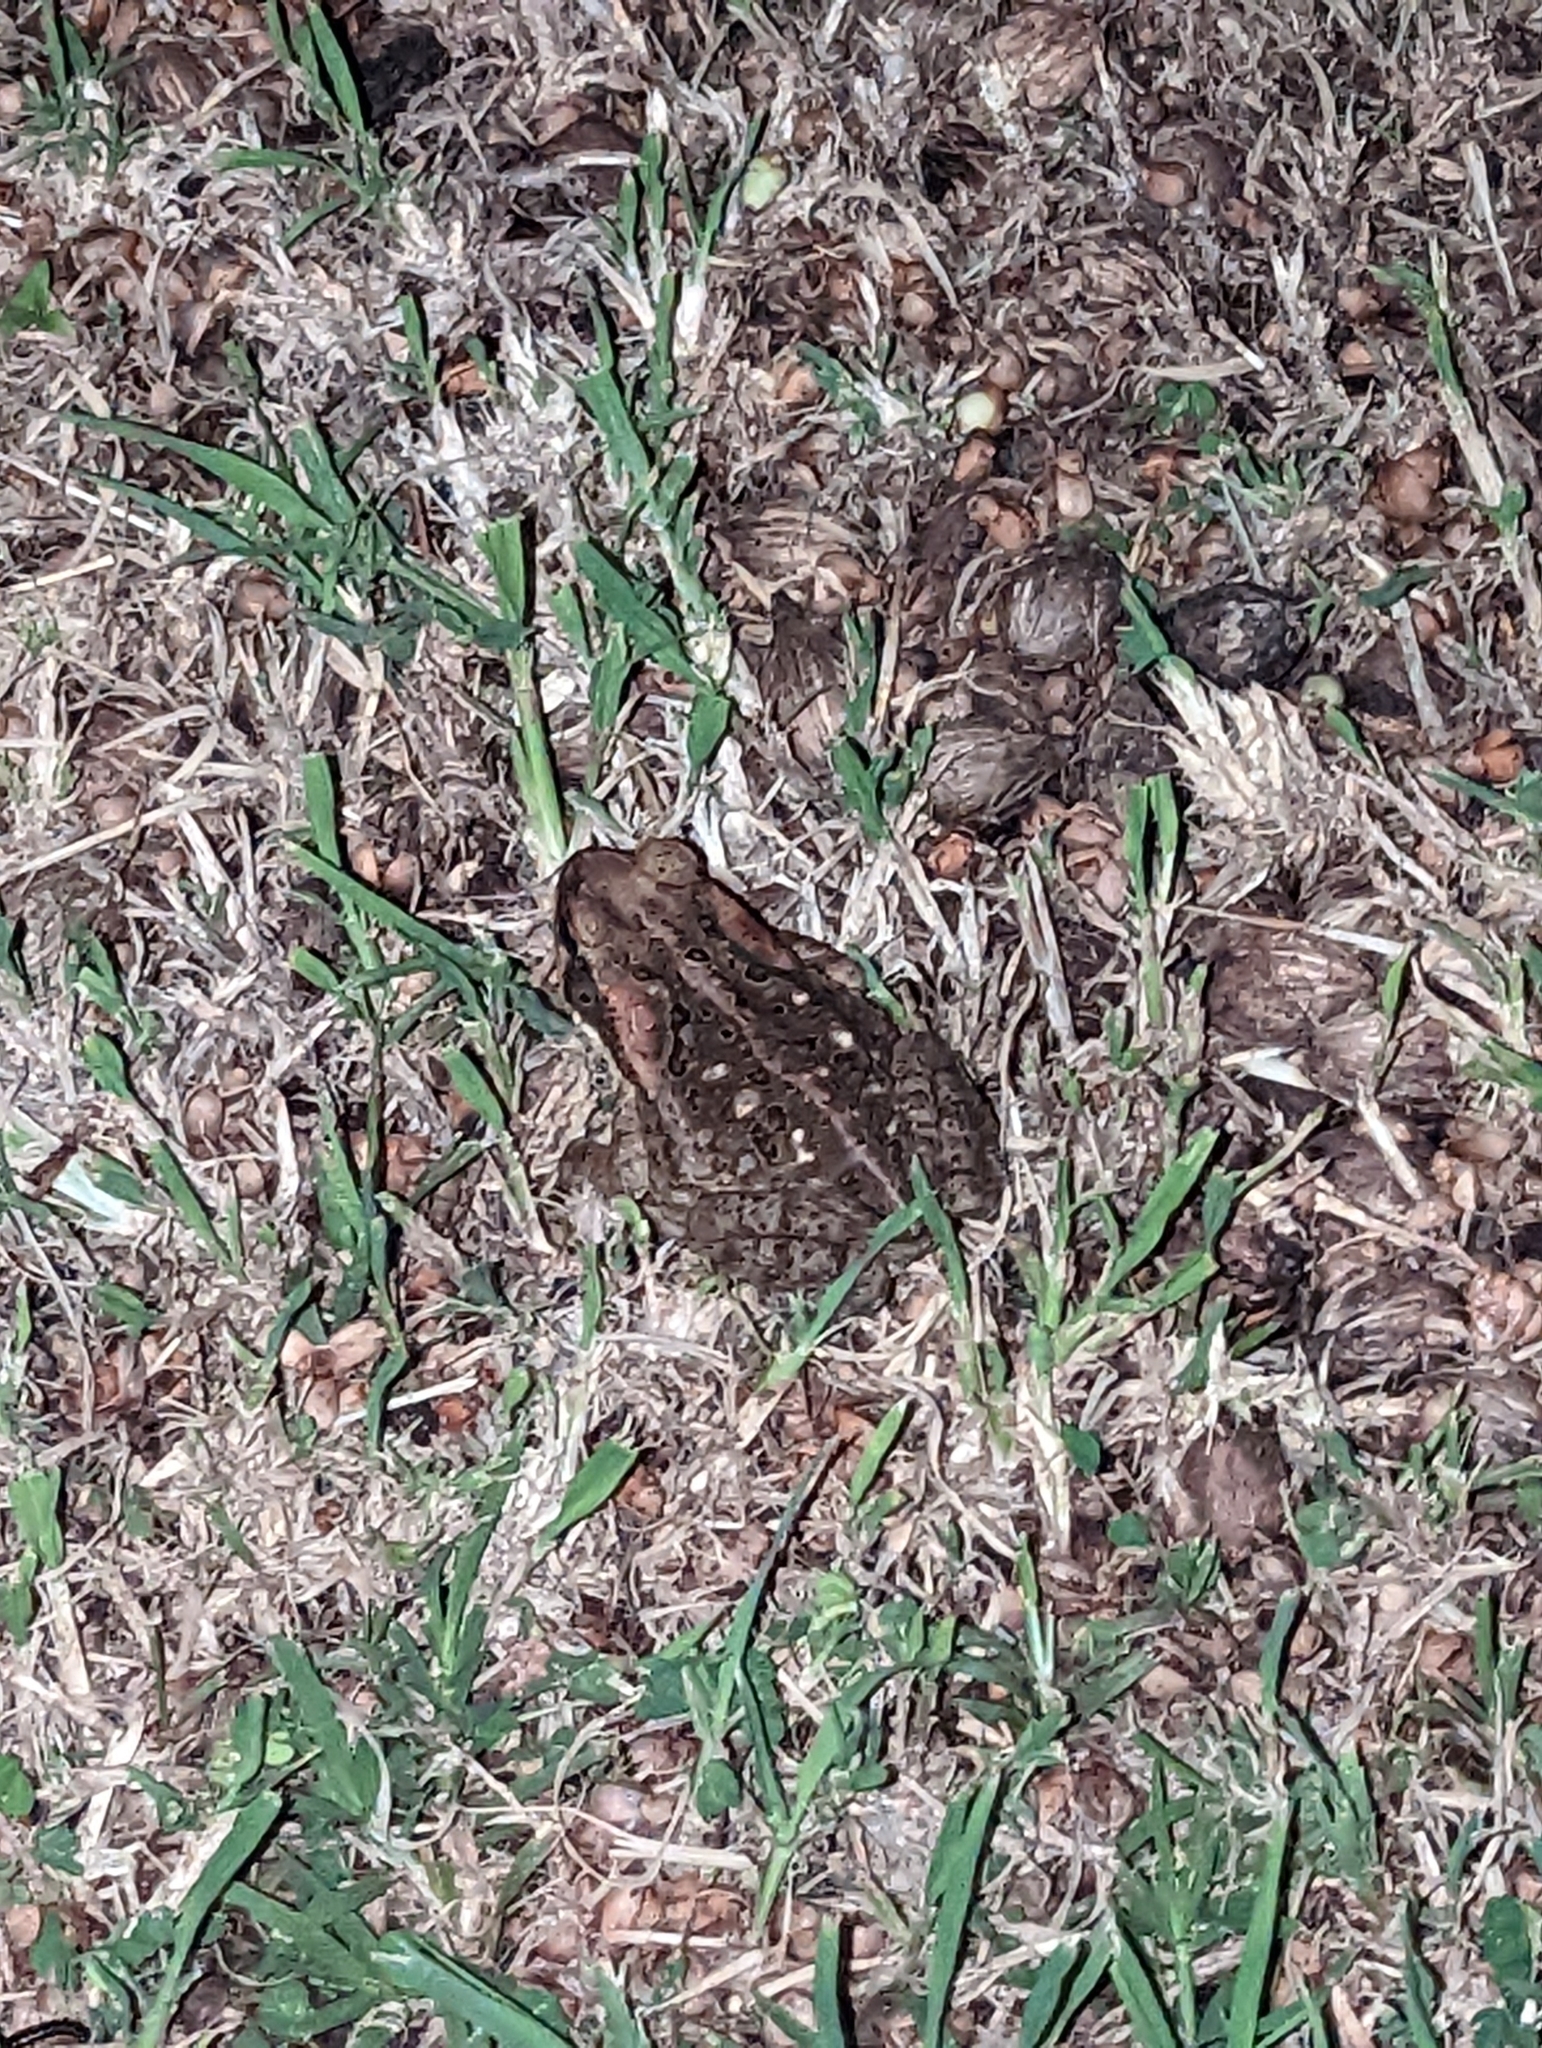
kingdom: Animalia
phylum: Chordata
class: Amphibia
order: Anura
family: Bufonidae
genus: Rhinella
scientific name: Rhinella marina
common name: Cane toad
